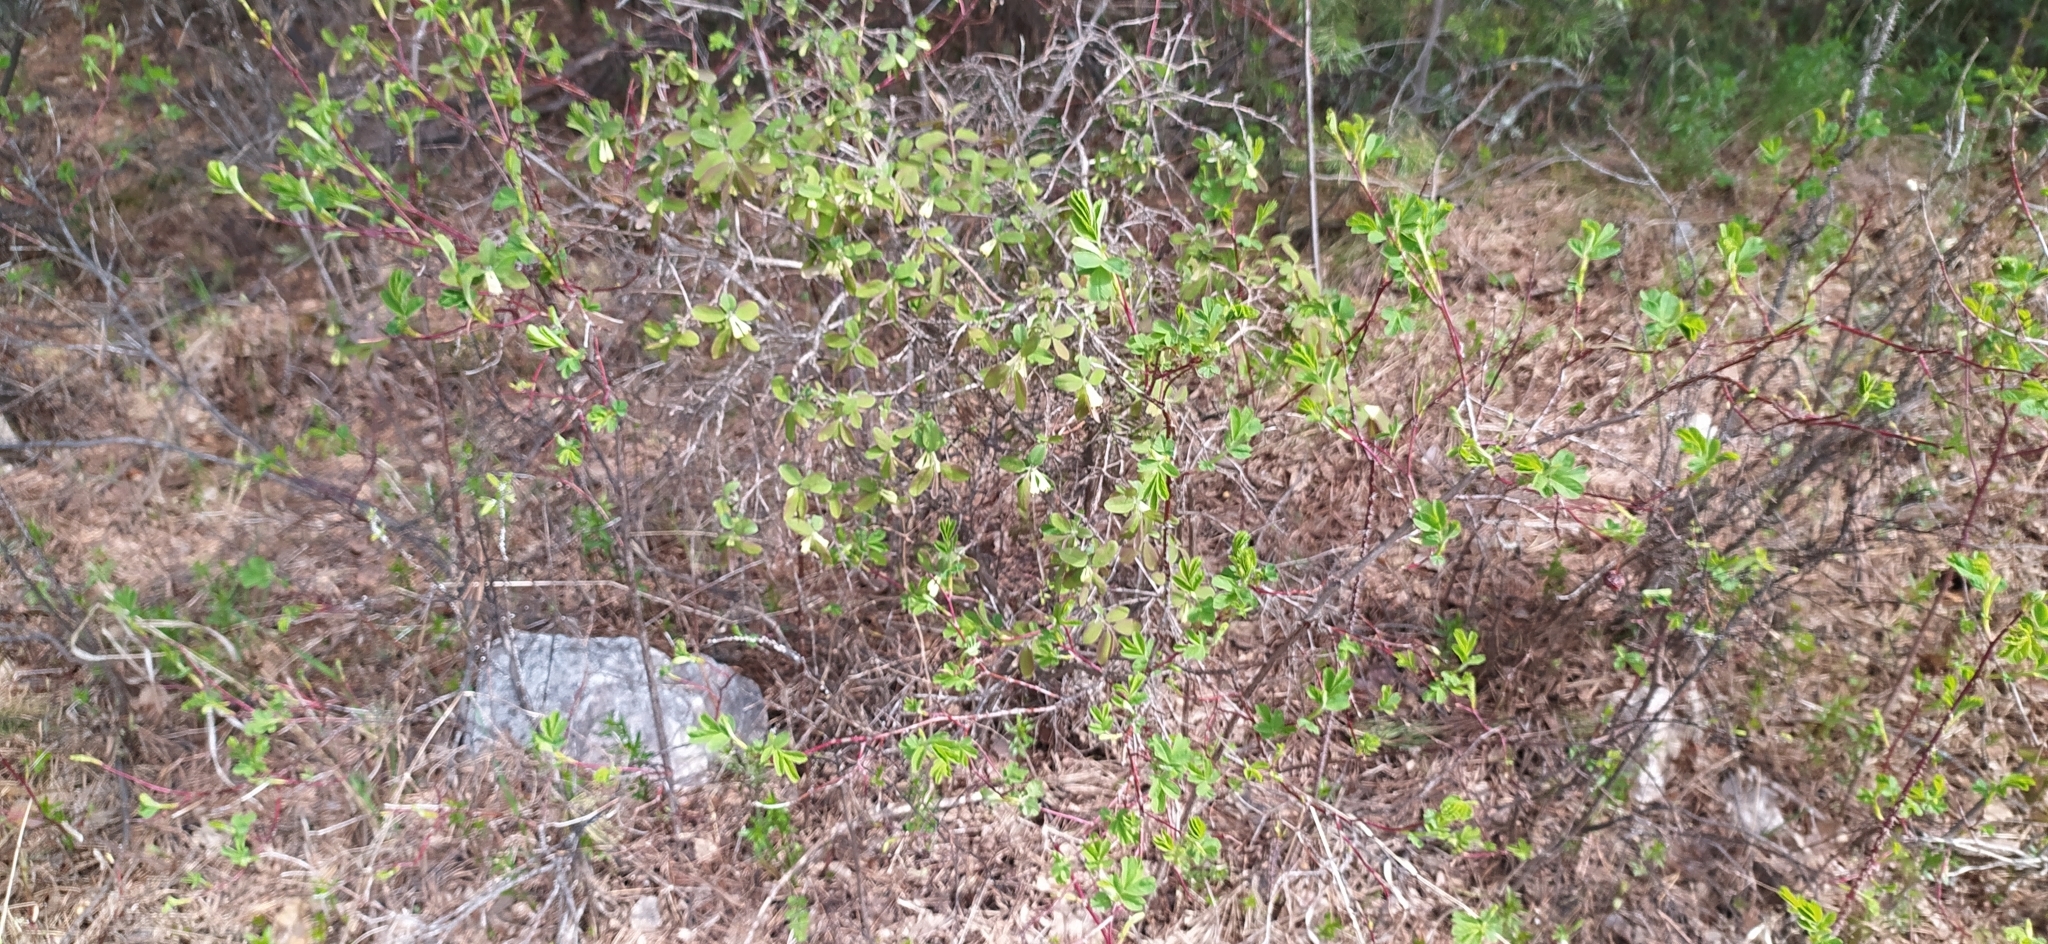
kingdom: Plantae
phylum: Tracheophyta
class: Magnoliopsida
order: Dipsacales
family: Caprifoliaceae
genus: Lonicera
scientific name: Lonicera caerulea
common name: Blue honeysuckle
